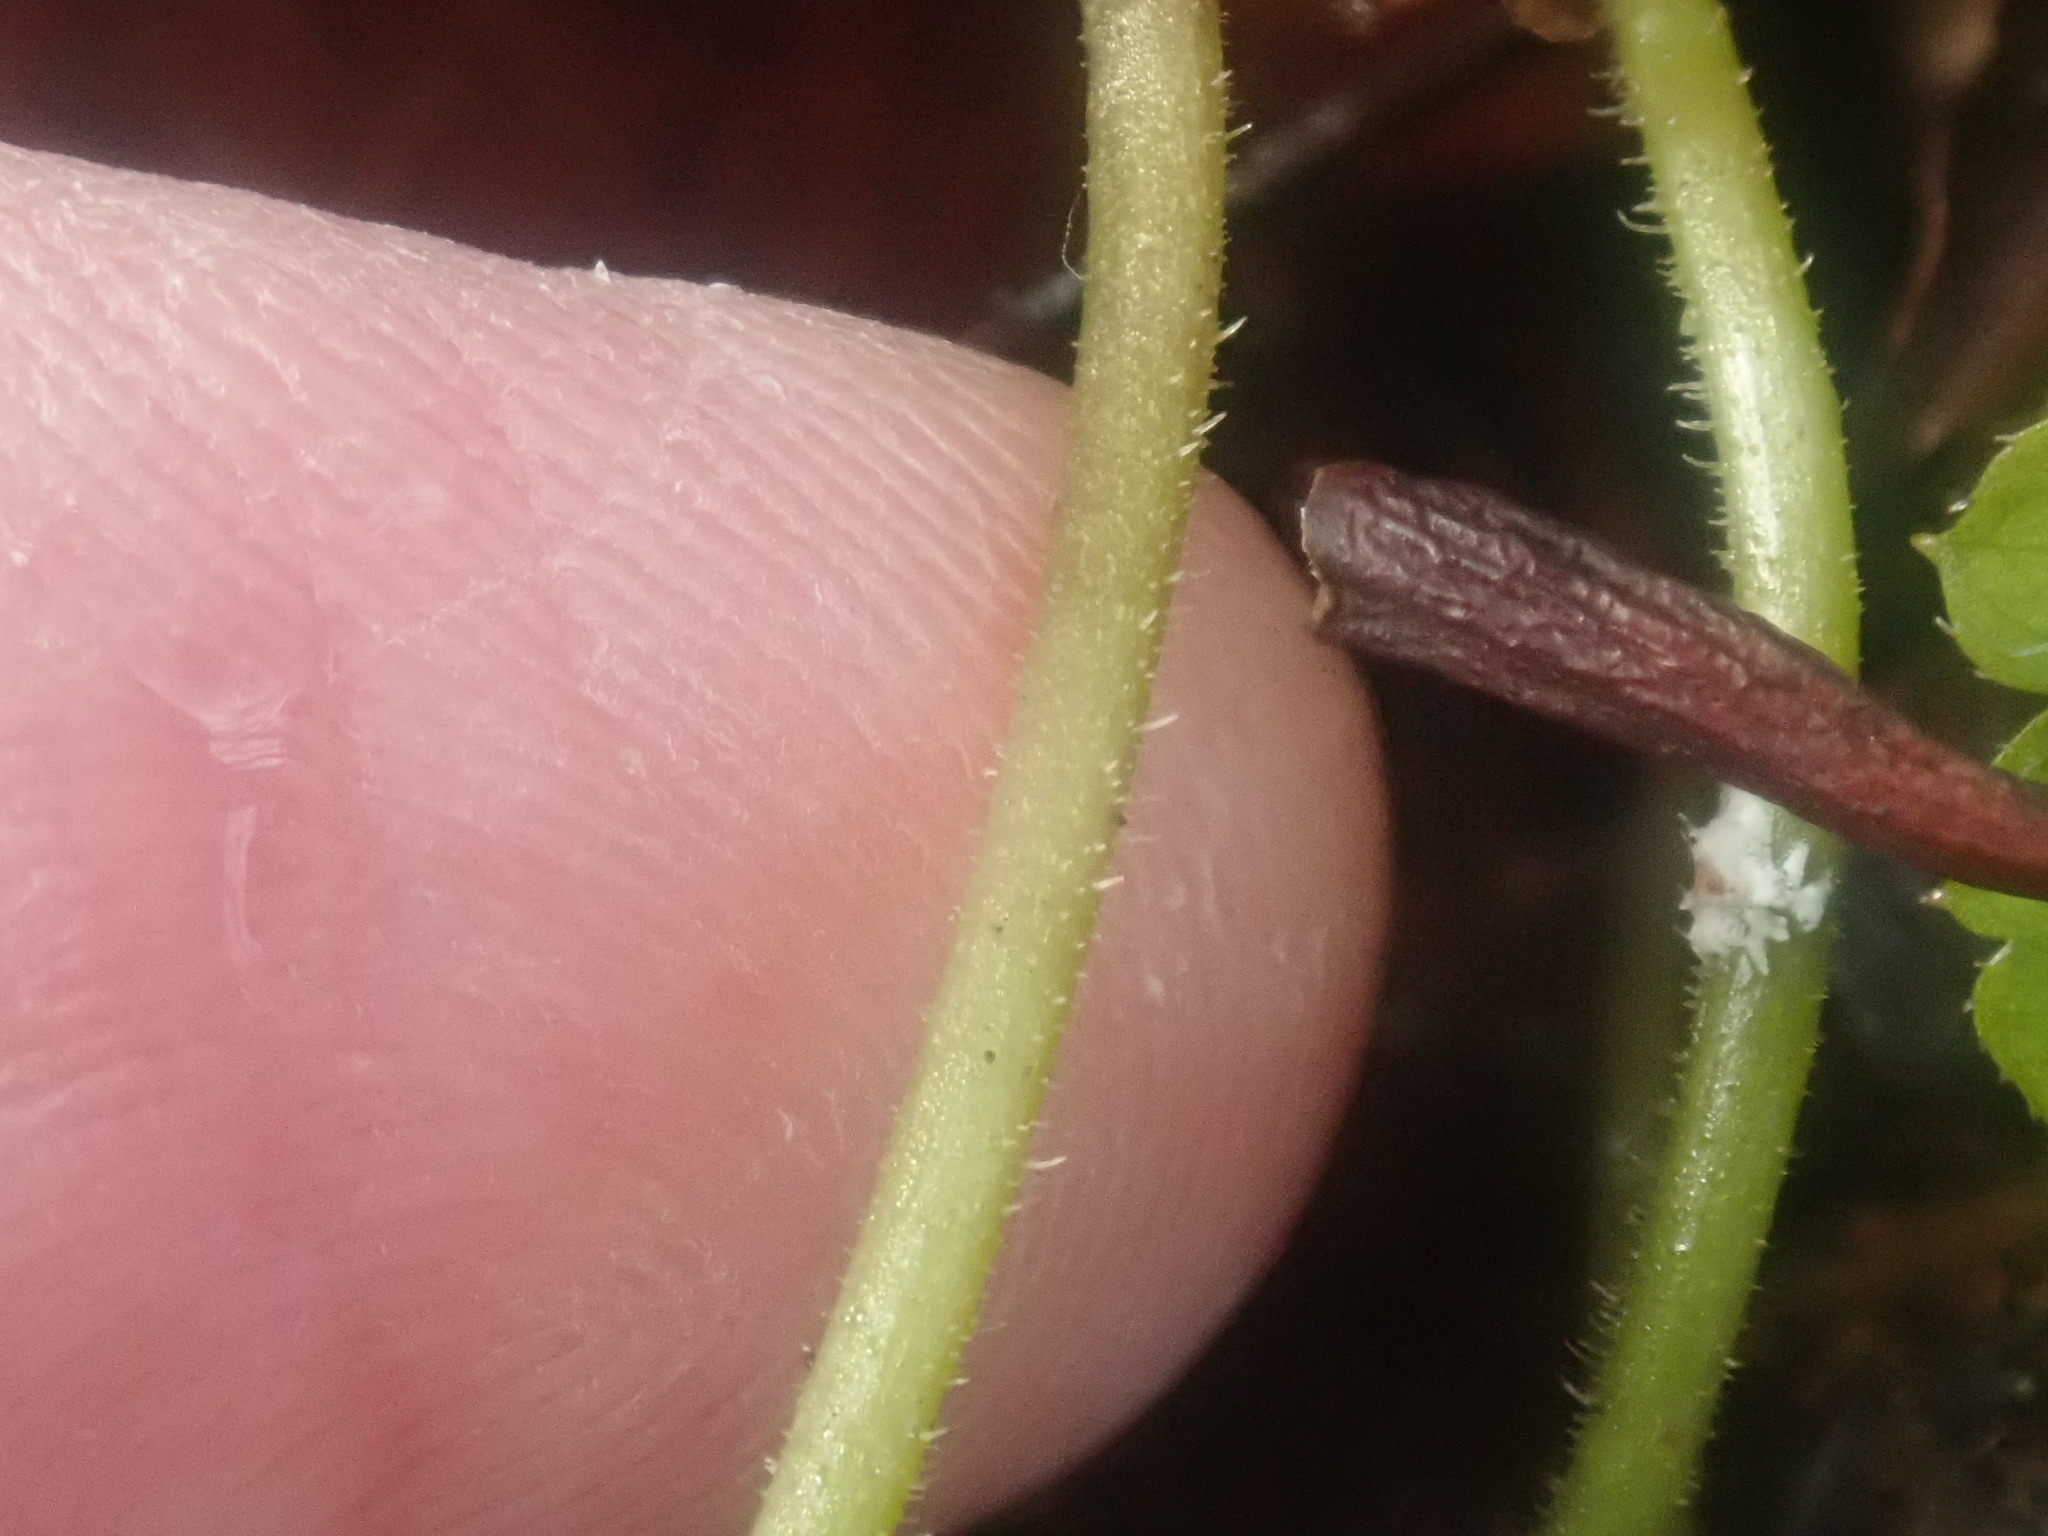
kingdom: Plantae
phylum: Tracheophyta
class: Magnoliopsida
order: Saxifragales
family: Saxifragaceae
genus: Tiarella
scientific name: Tiarella stolonifera
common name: Stoloniferous foamflower
